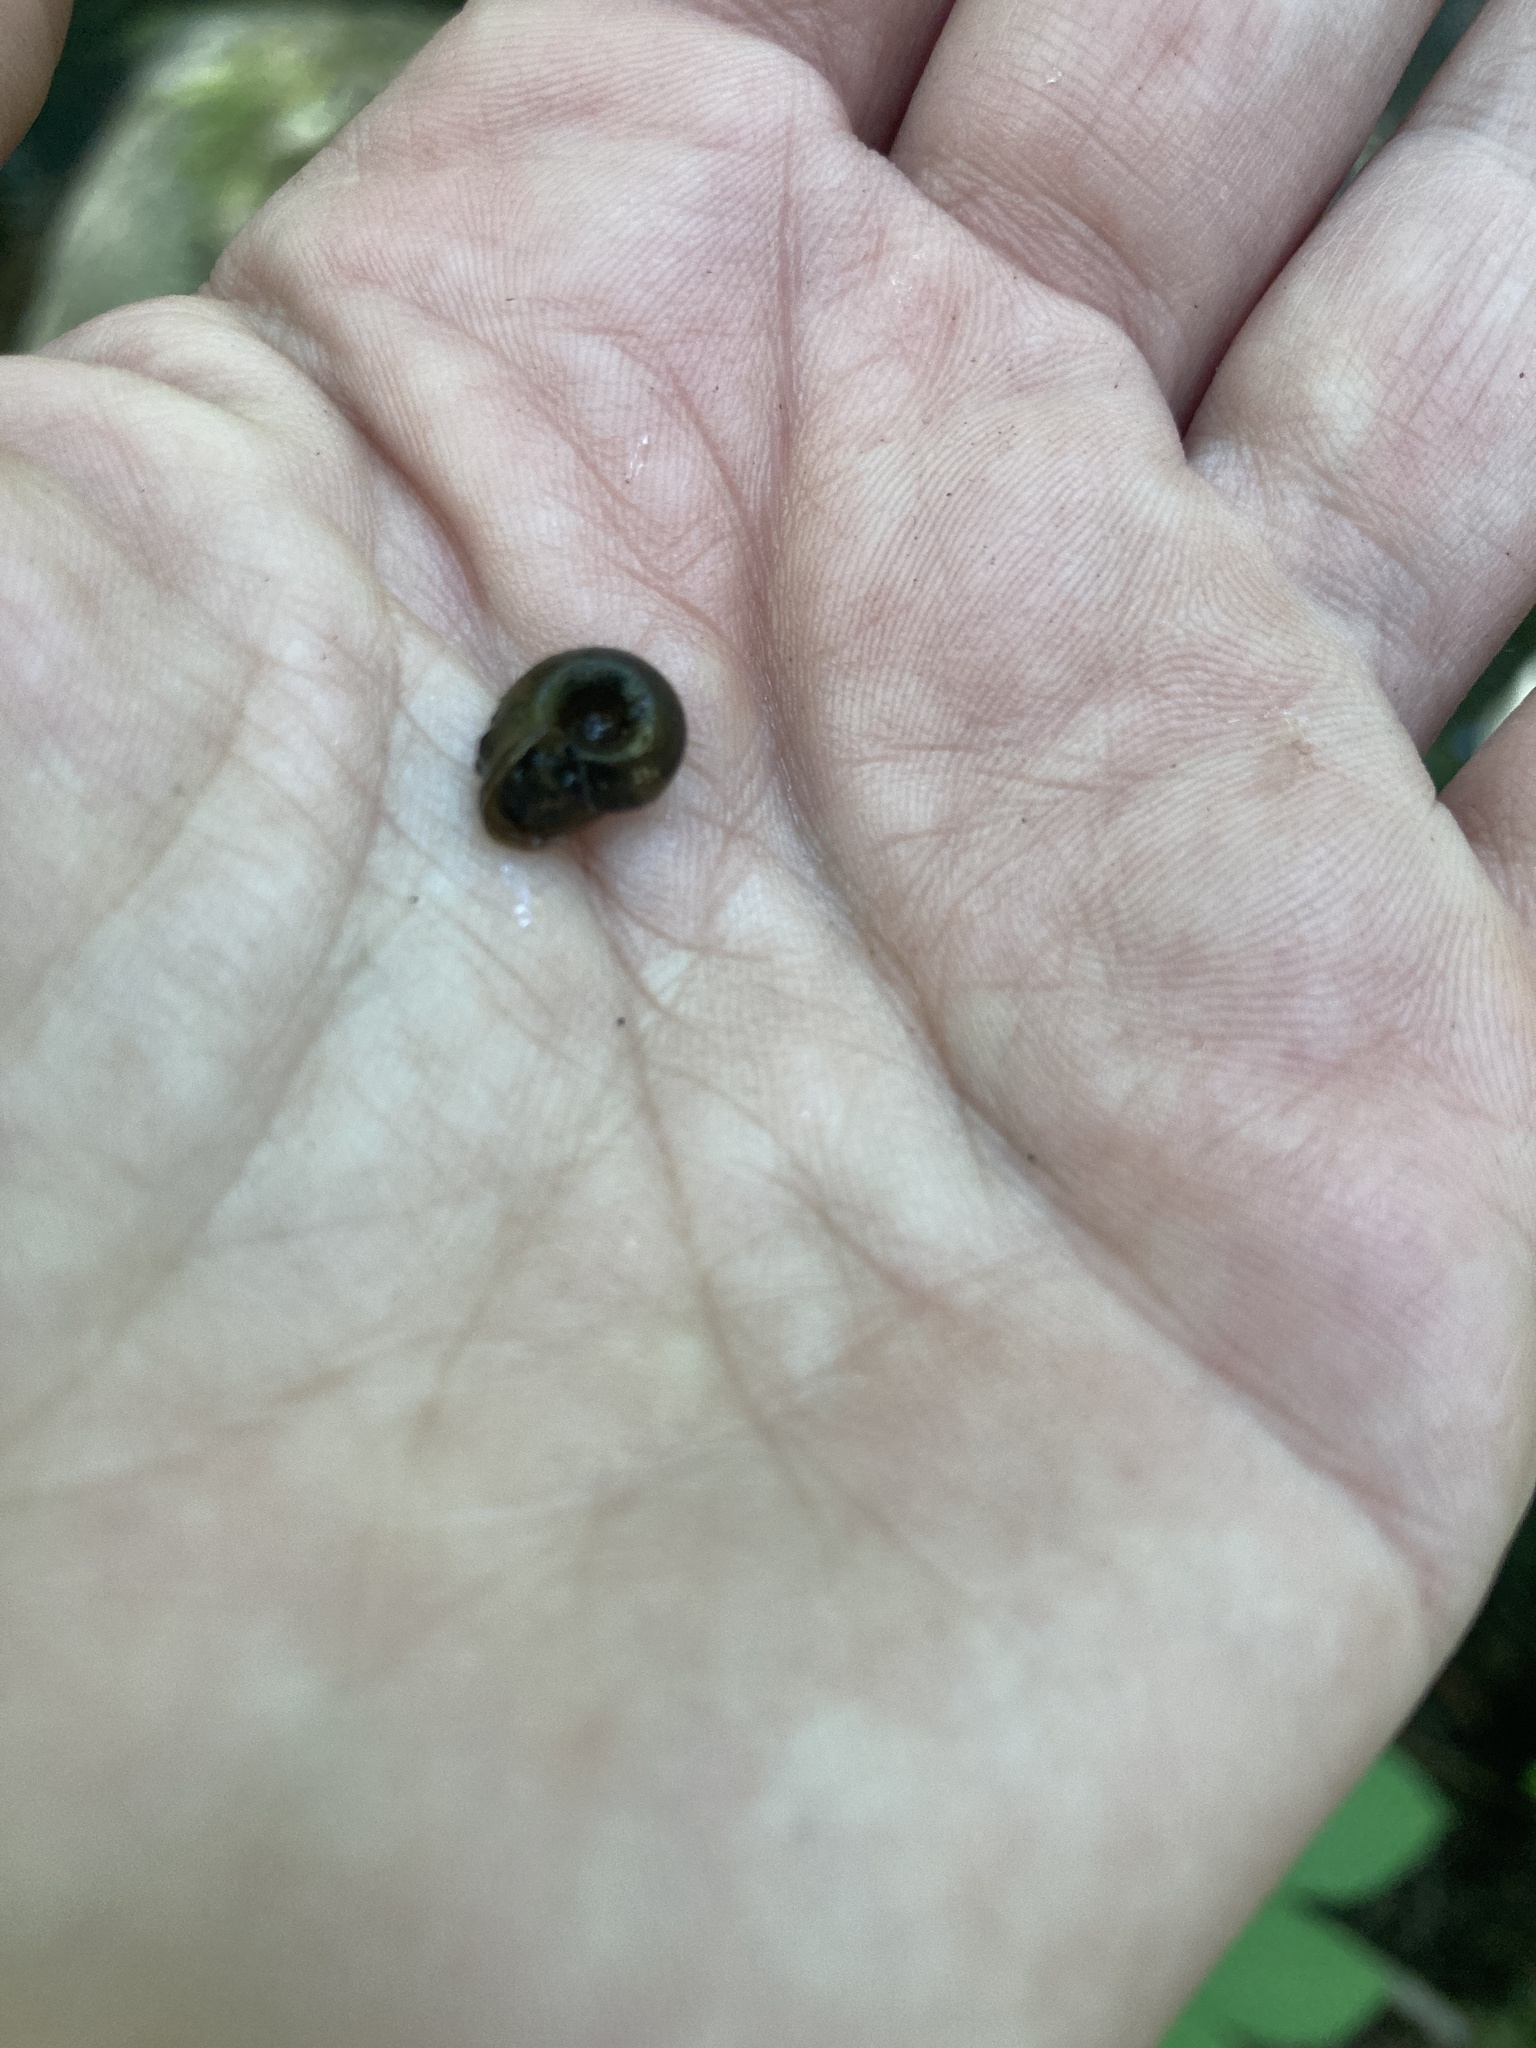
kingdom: Animalia
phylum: Mollusca
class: Gastropoda
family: Planorbidae
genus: Planorbella
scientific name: Planorbella campanulata
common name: Bellmouth ramshorn
